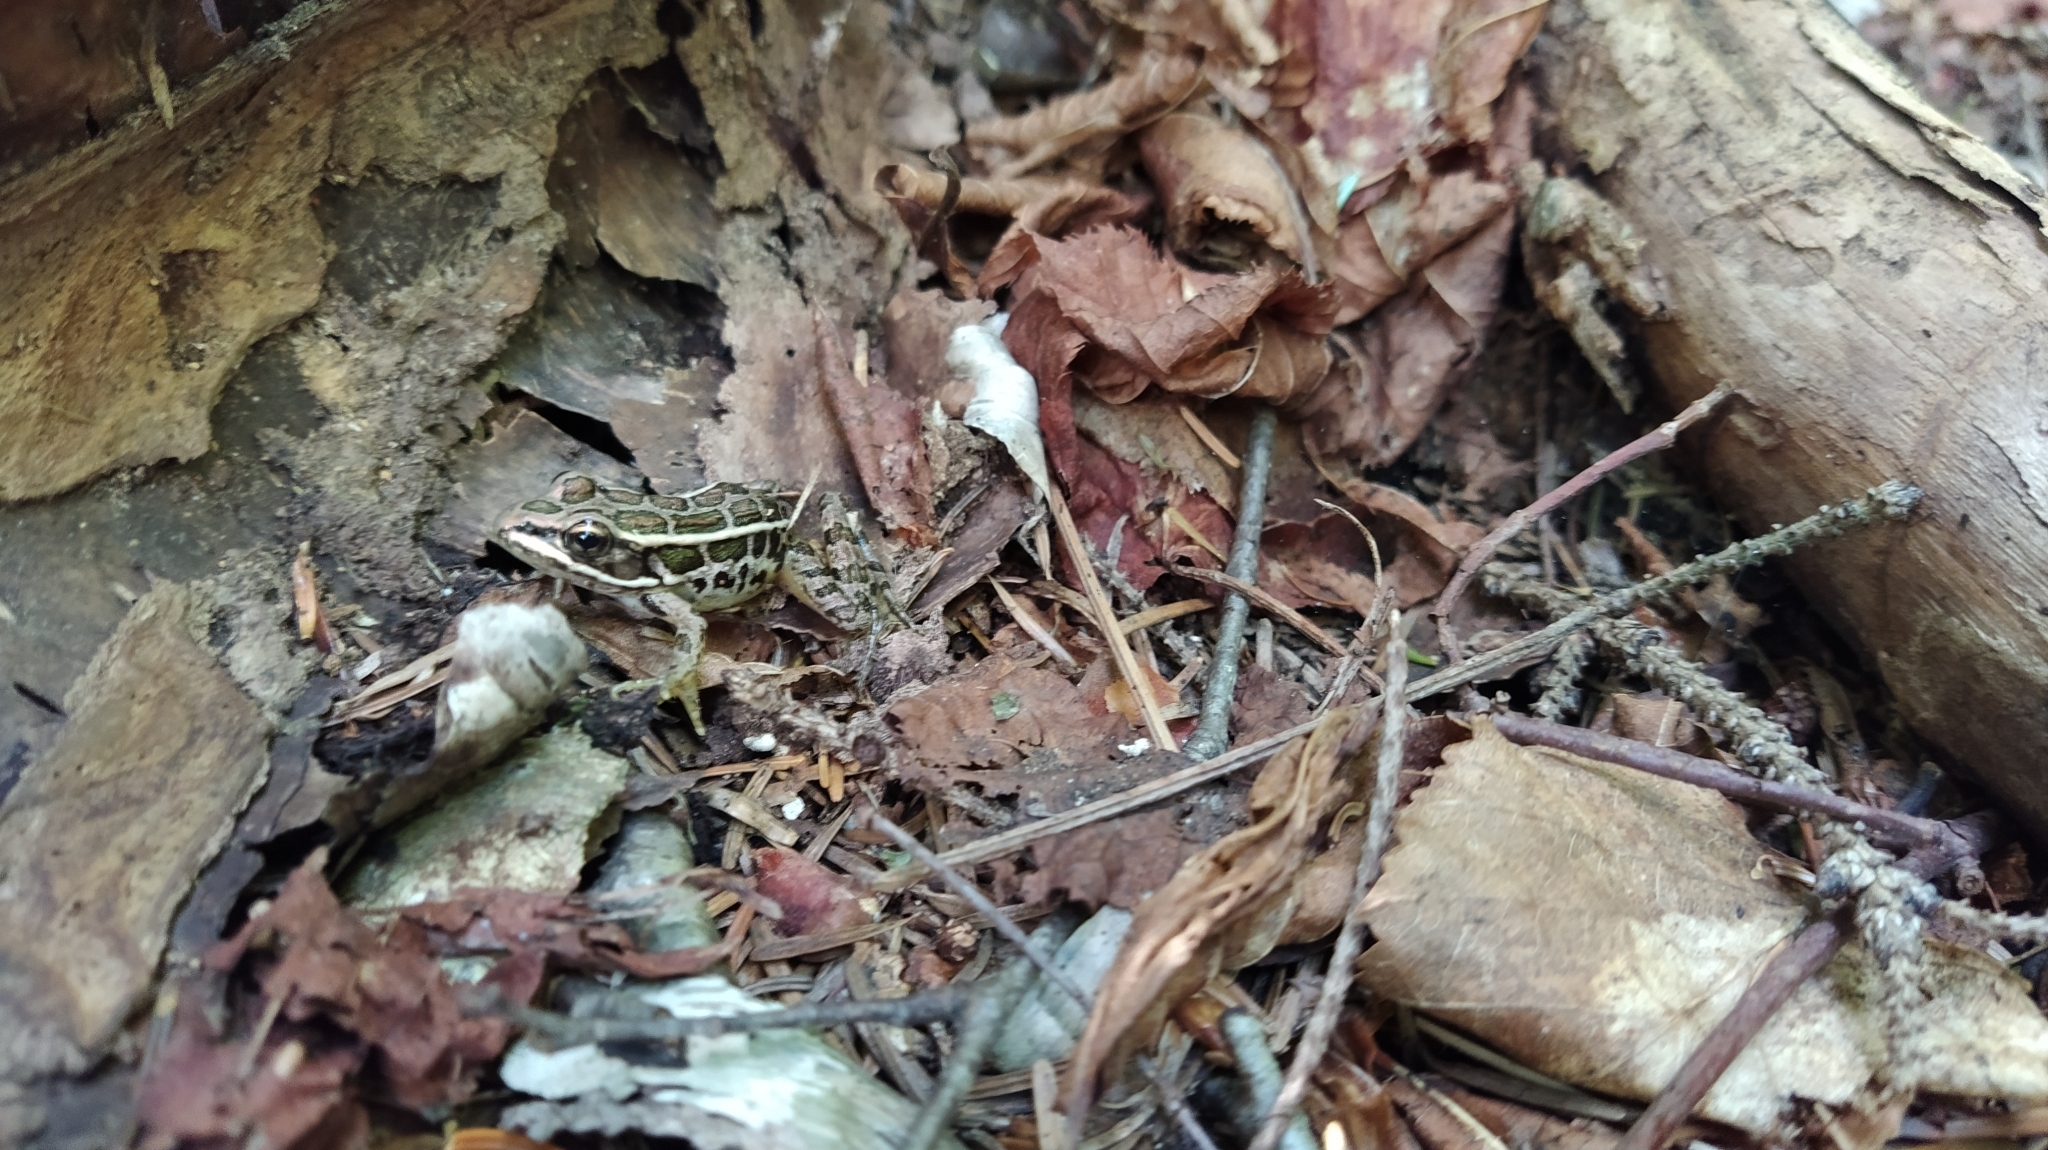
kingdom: Animalia
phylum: Chordata
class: Amphibia
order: Anura
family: Ranidae
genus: Lithobates
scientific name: Lithobates palustris
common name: Pickerel frog
